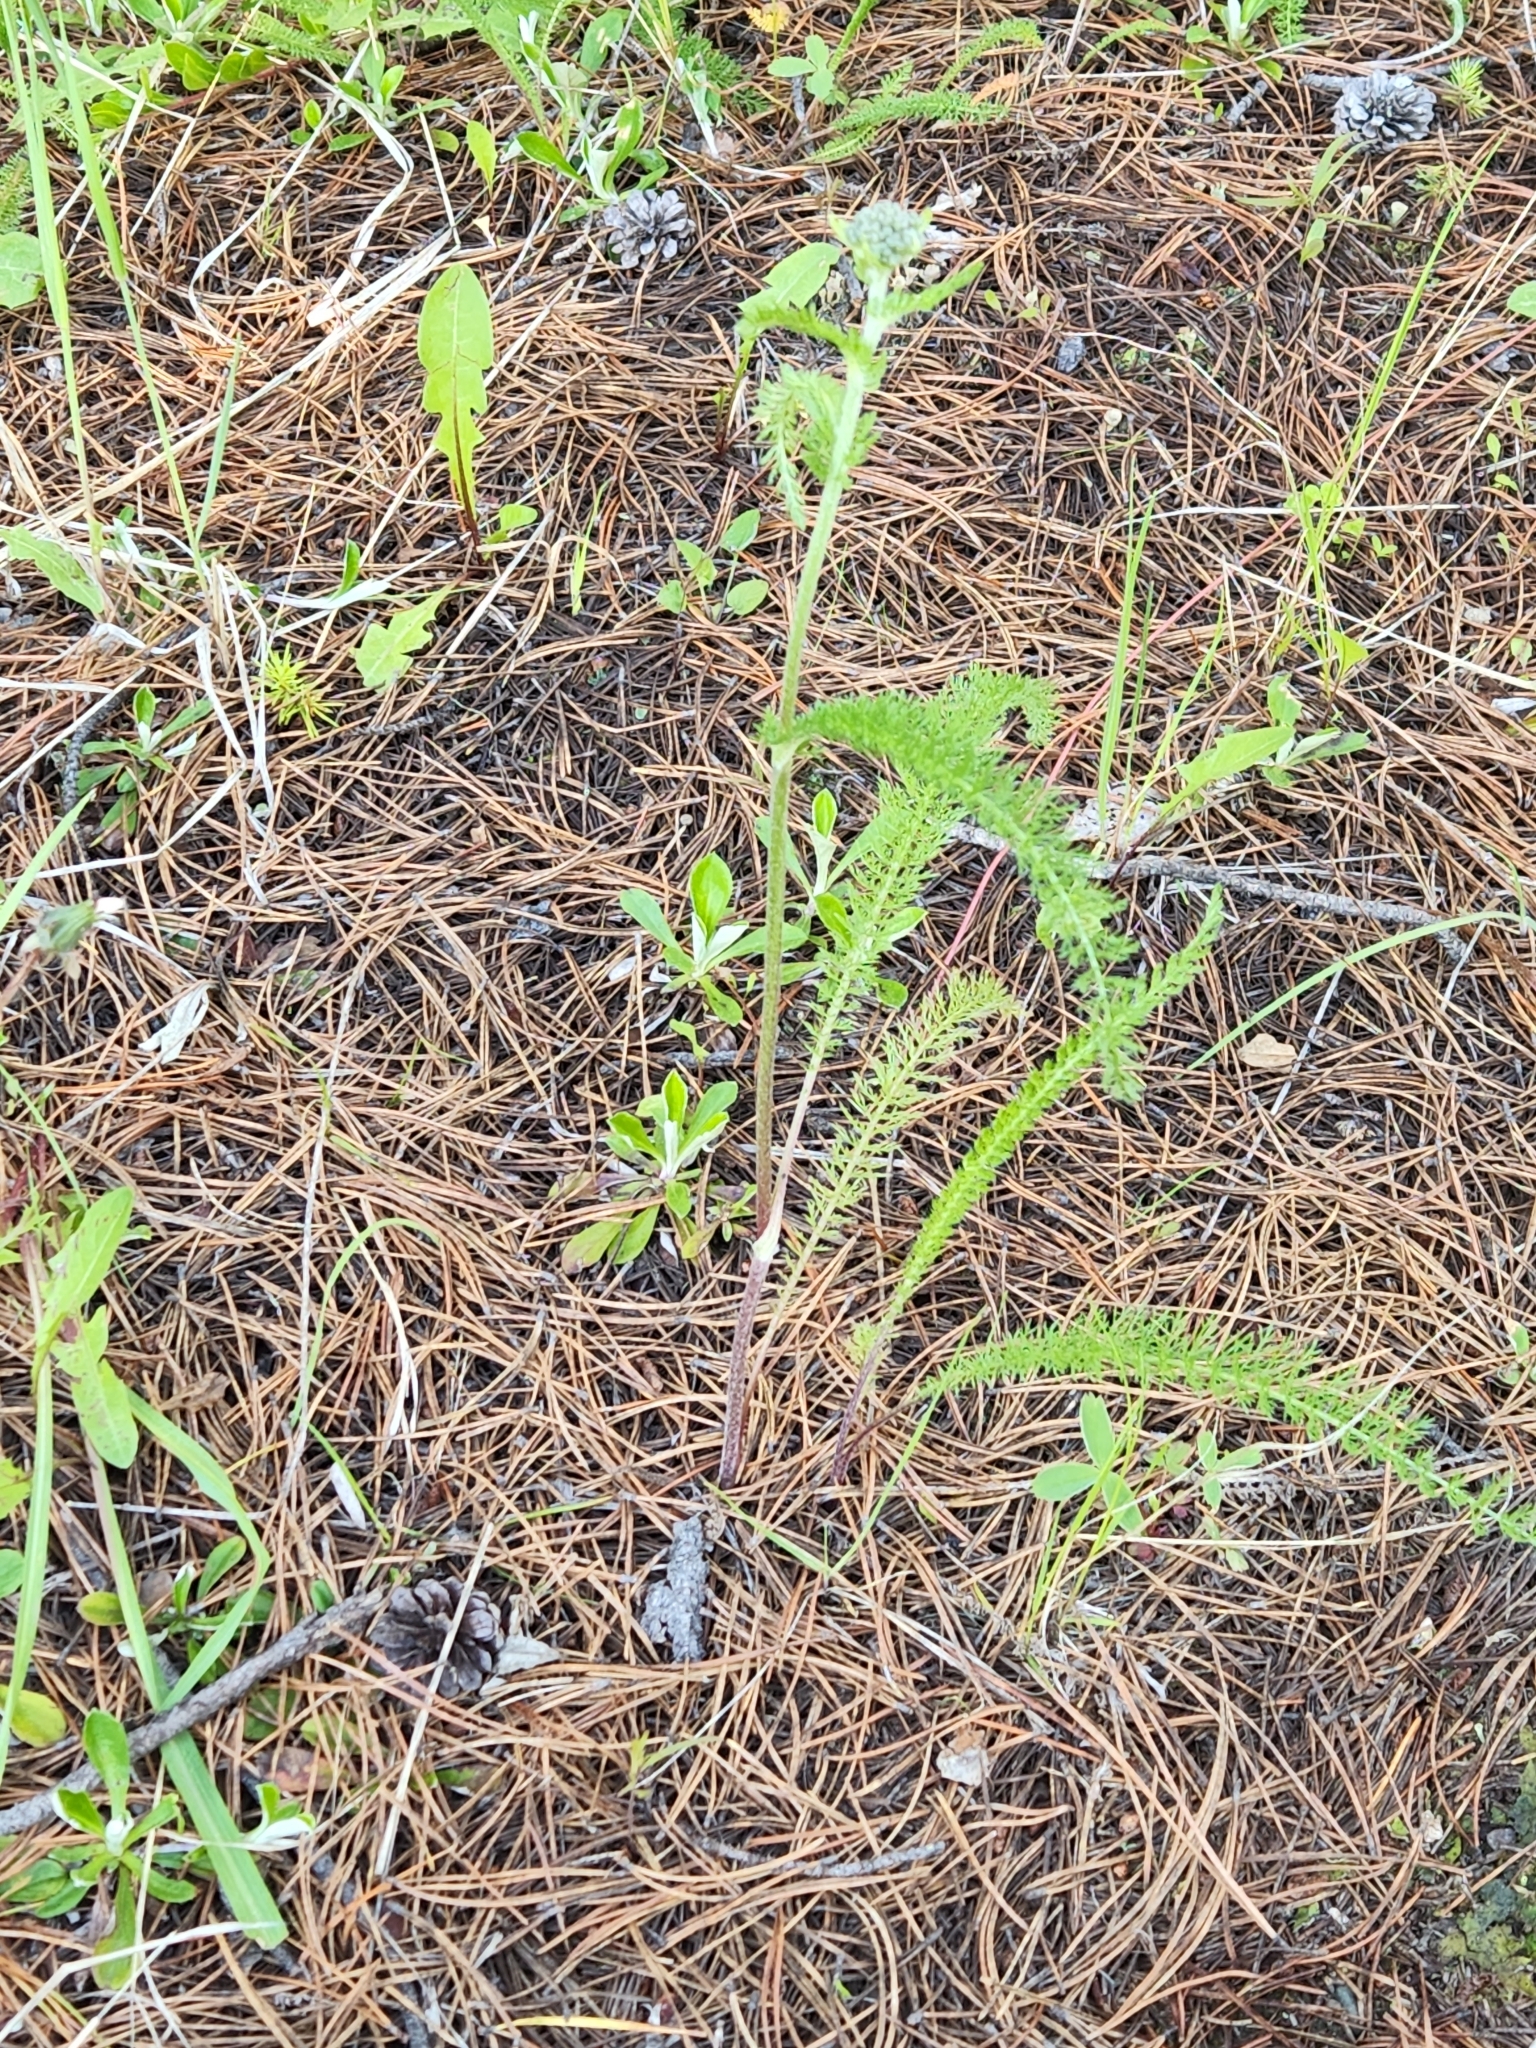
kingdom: Plantae
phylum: Tracheophyta
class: Magnoliopsida
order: Asterales
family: Asteraceae
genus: Achillea
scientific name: Achillea millefolium
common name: Yarrow
